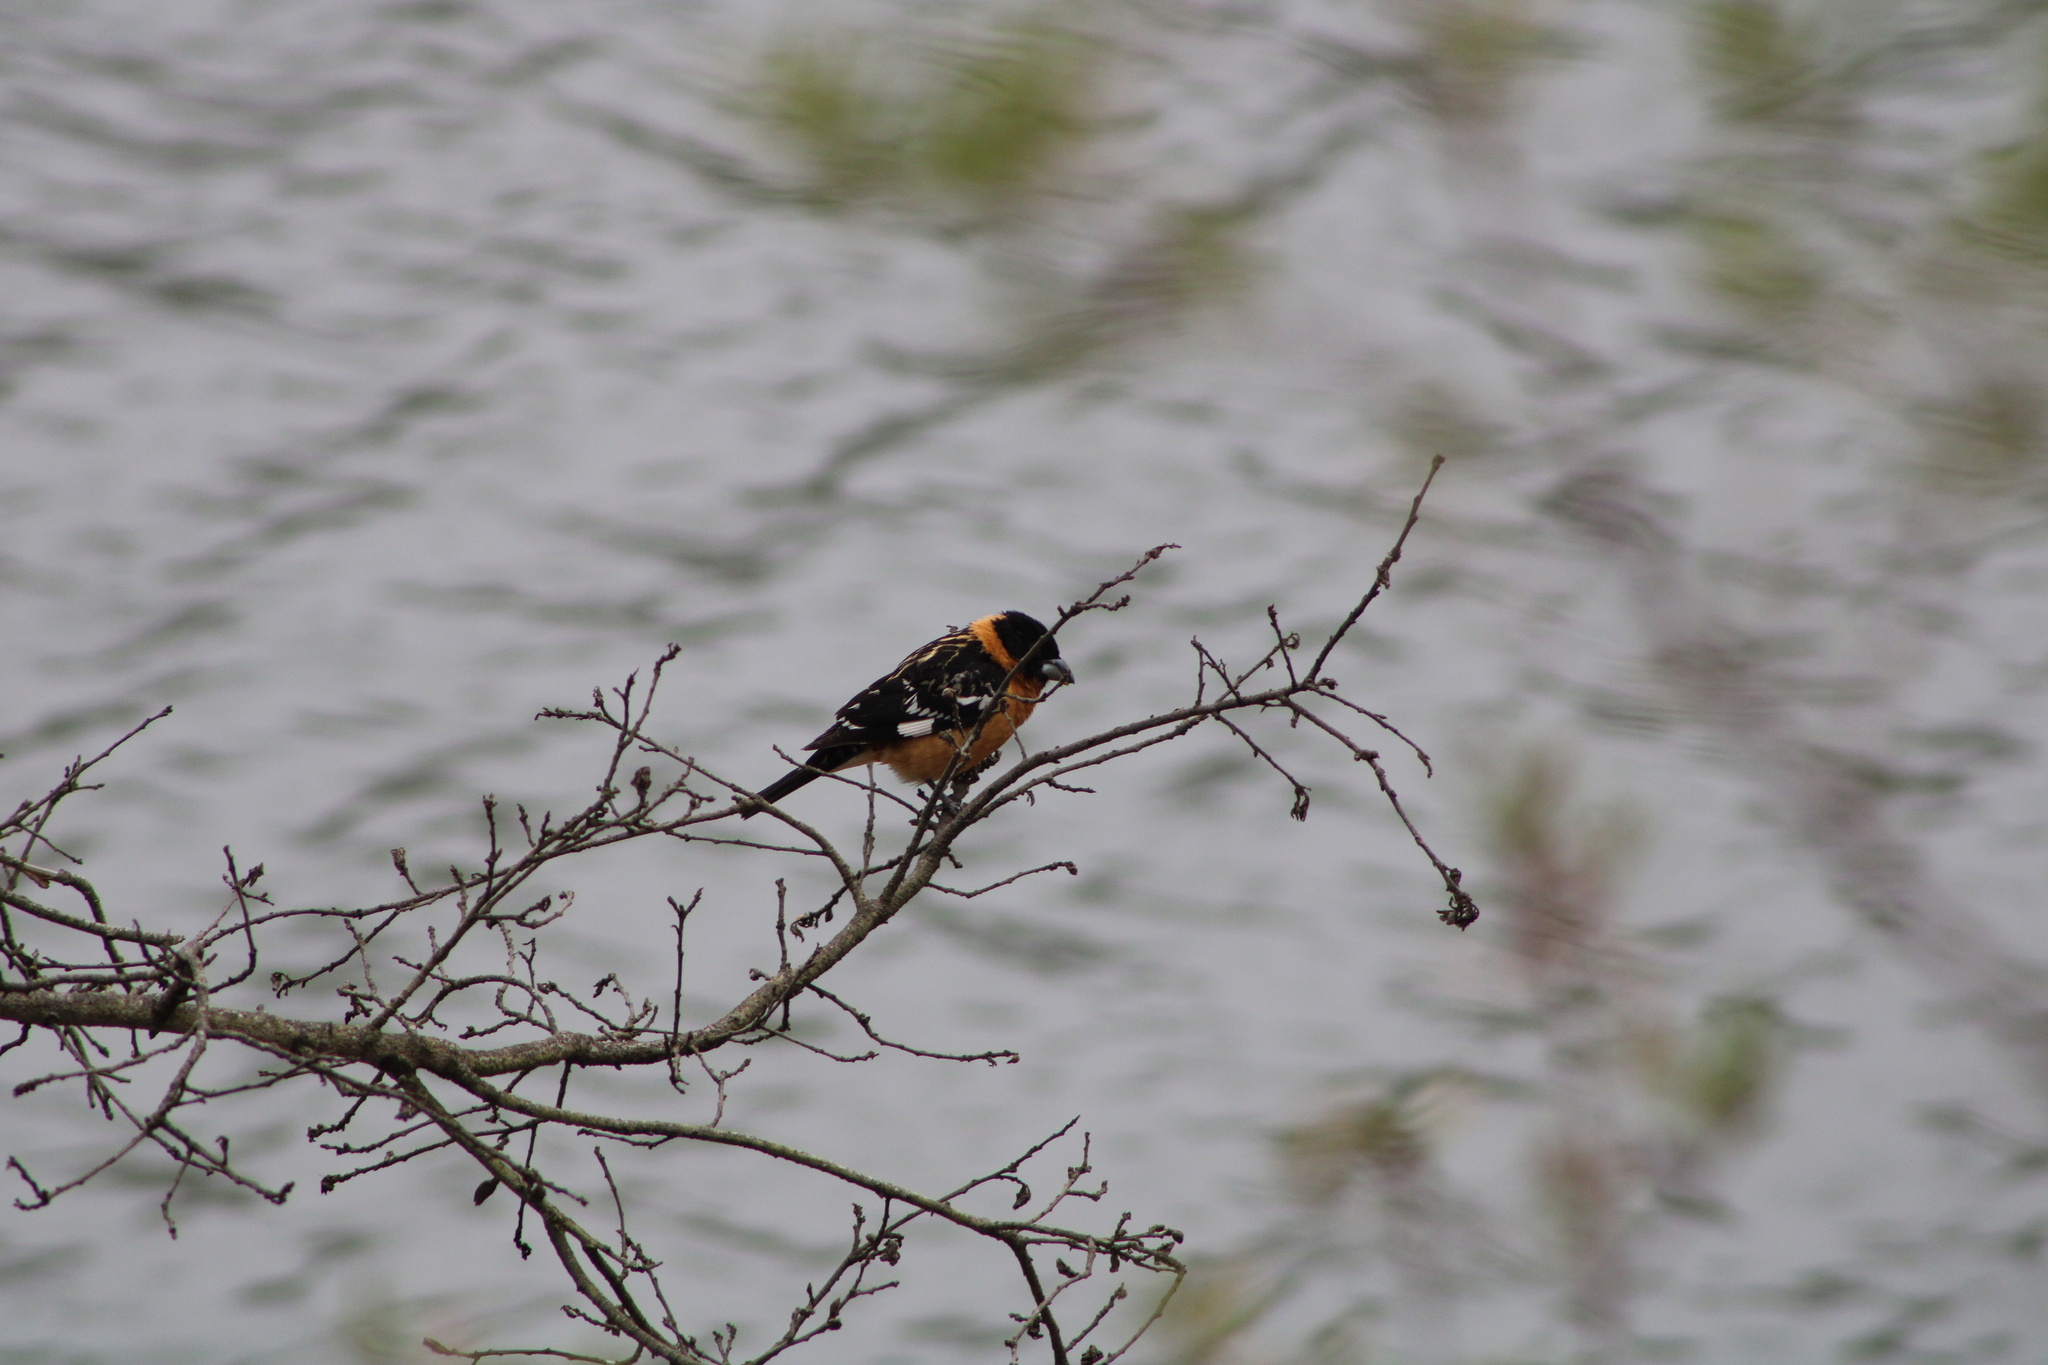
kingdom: Animalia
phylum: Chordata
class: Aves
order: Passeriformes
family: Cardinalidae
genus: Pheucticus
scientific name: Pheucticus melanocephalus
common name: Black-headed grosbeak
